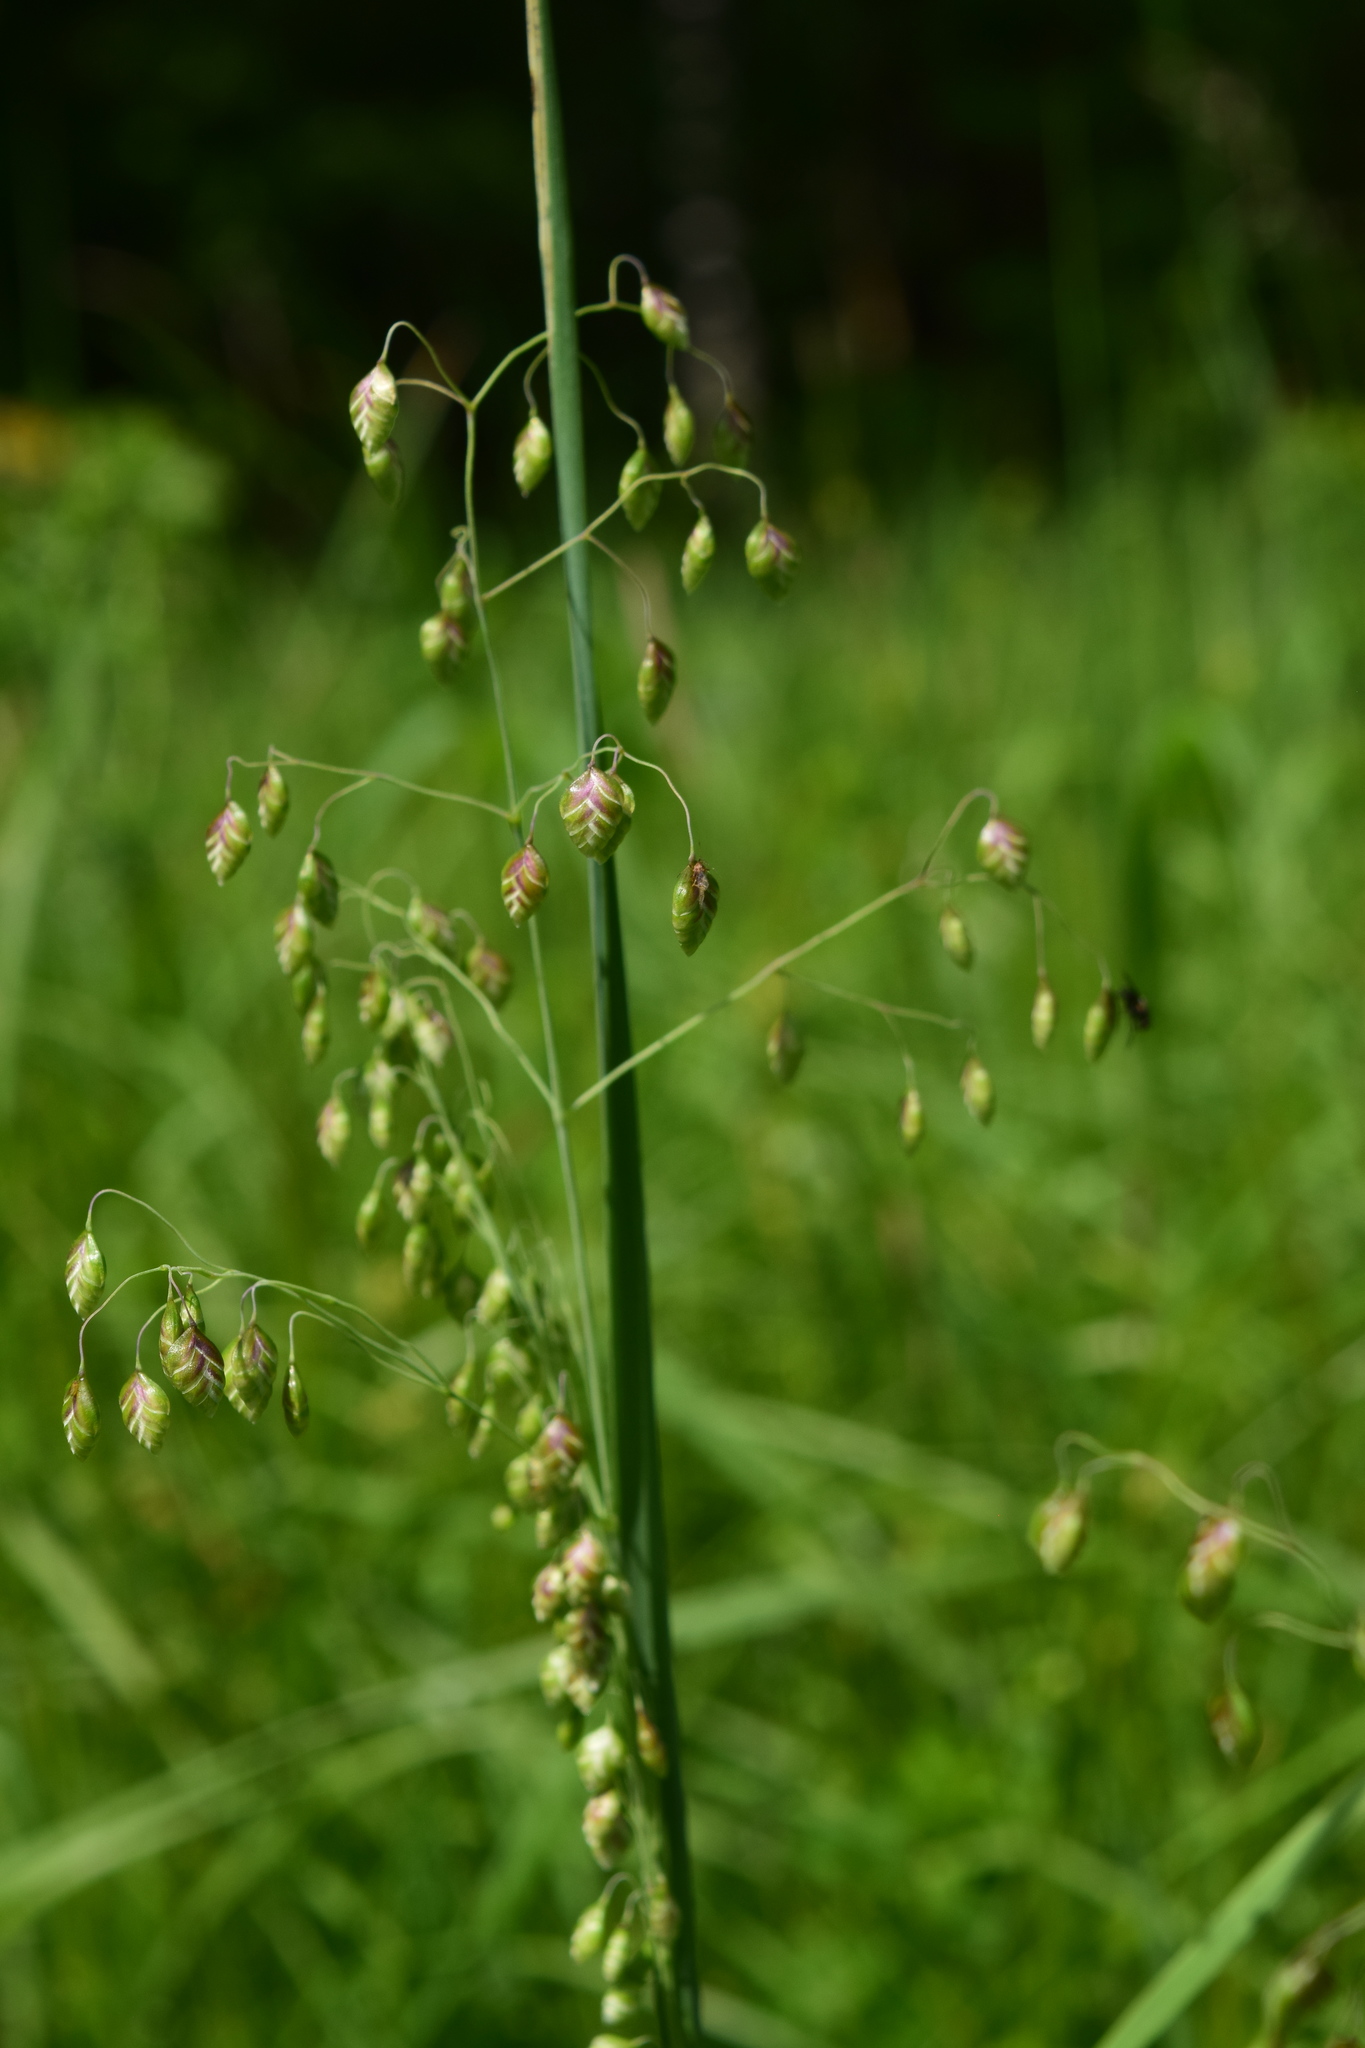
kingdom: Plantae
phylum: Tracheophyta
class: Liliopsida
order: Poales
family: Poaceae
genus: Briza
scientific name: Briza media
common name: Quaking grass
